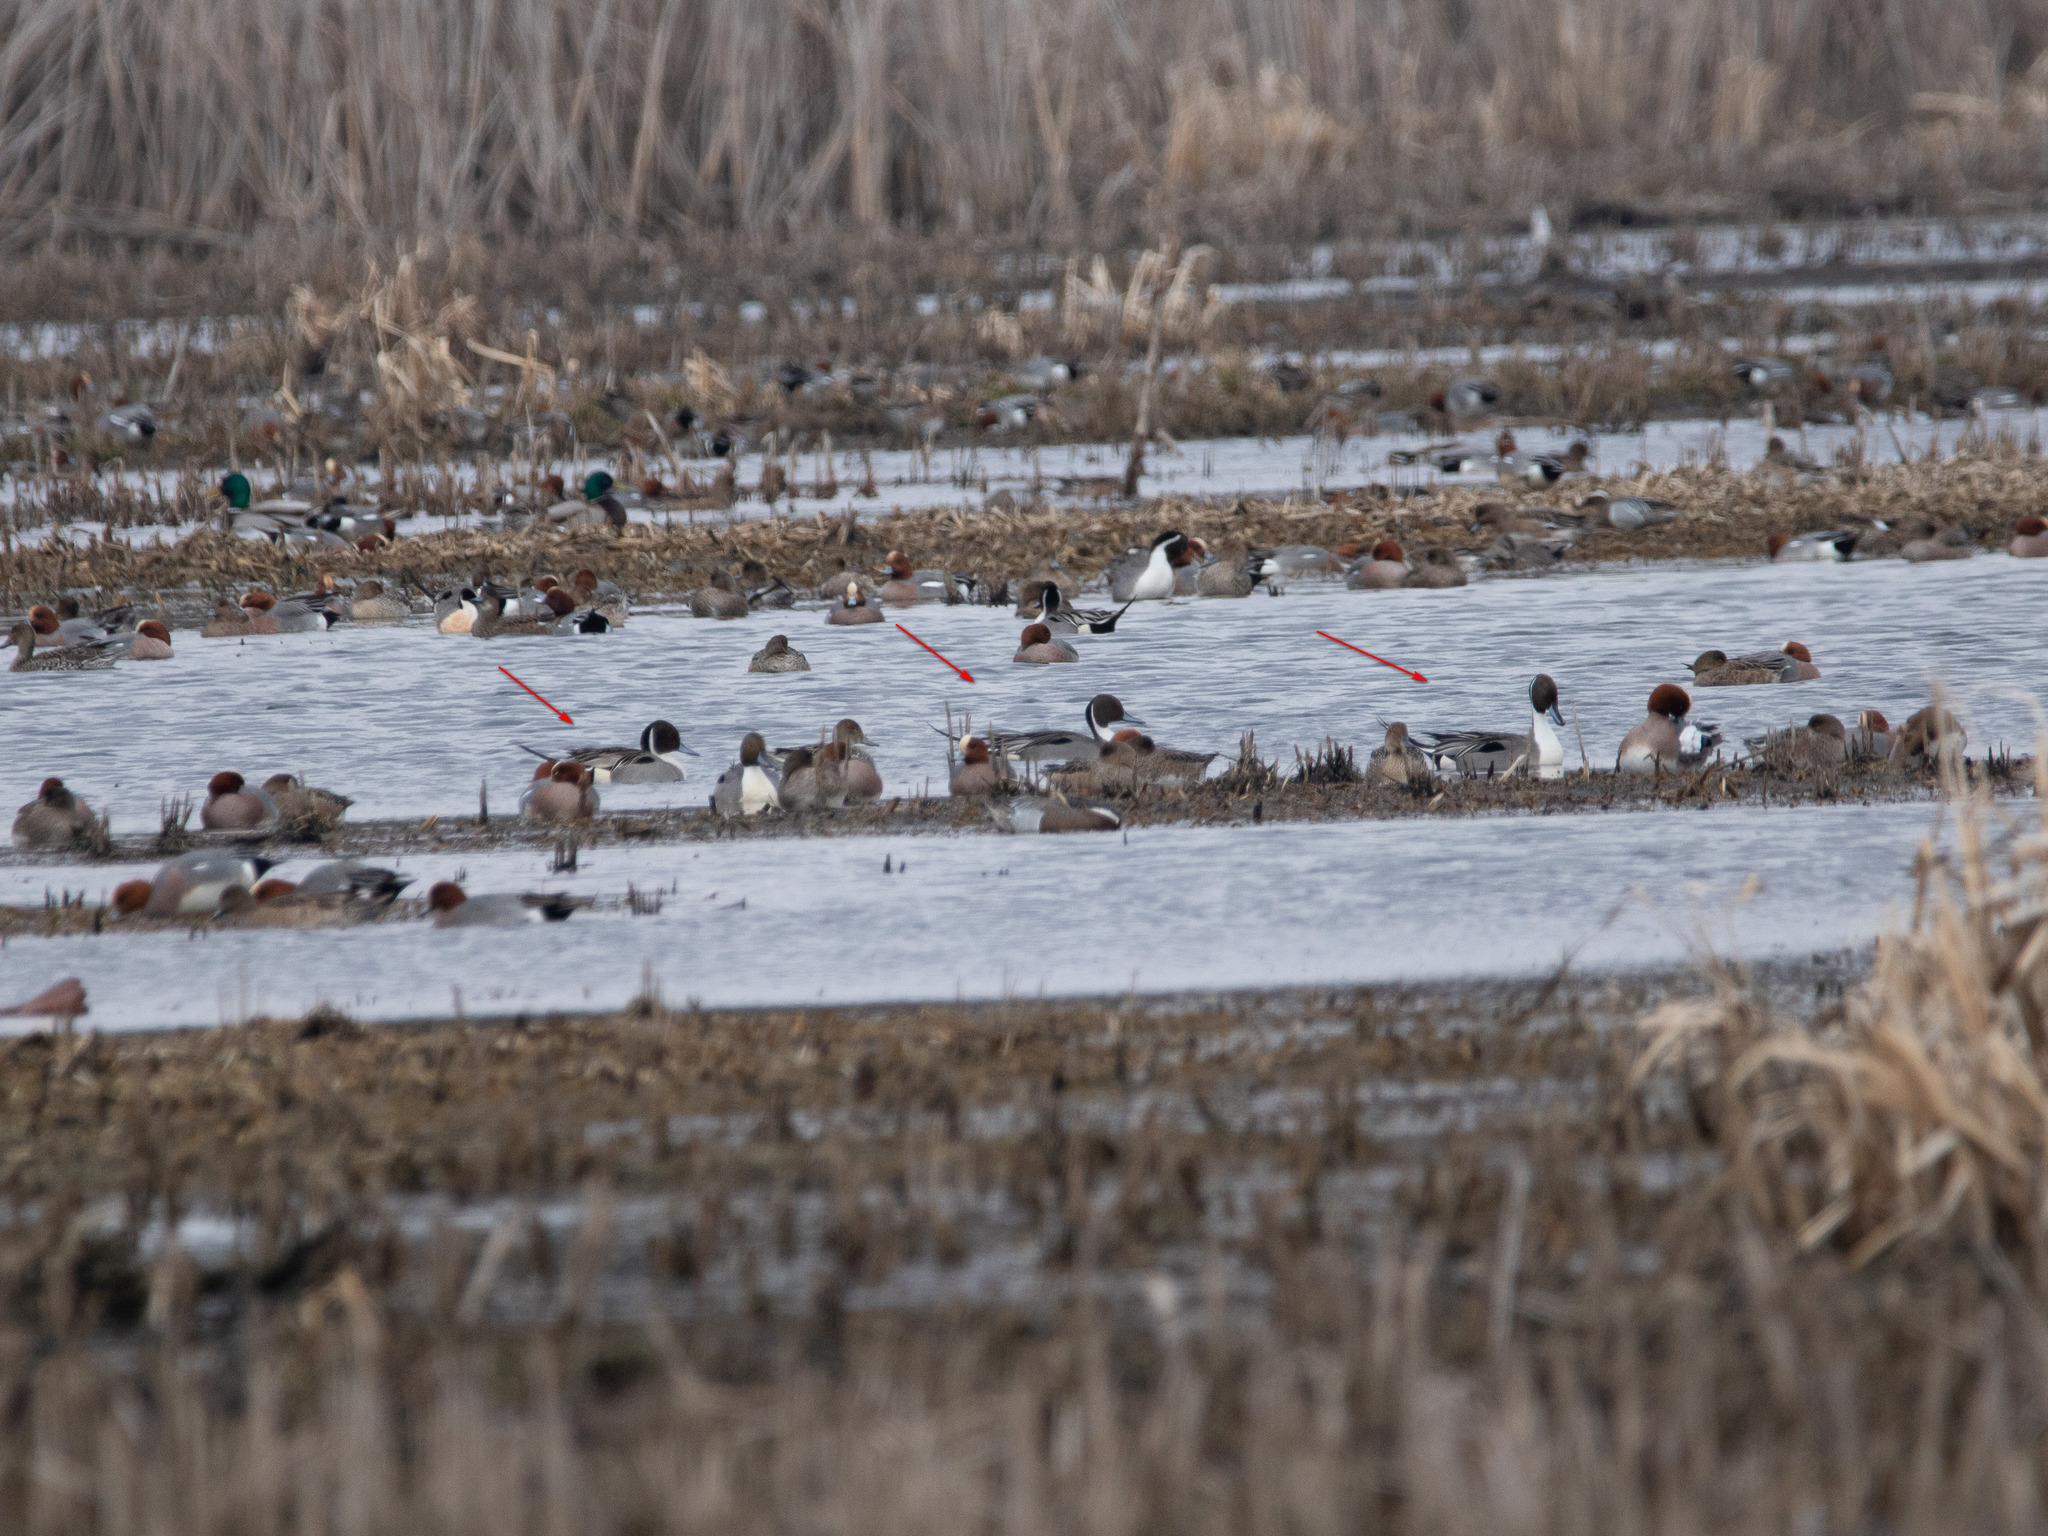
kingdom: Animalia
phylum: Chordata
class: Aves
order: Anseriformes
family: Anatidae
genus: Anas
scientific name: Anas acuta
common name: Northern pintail
